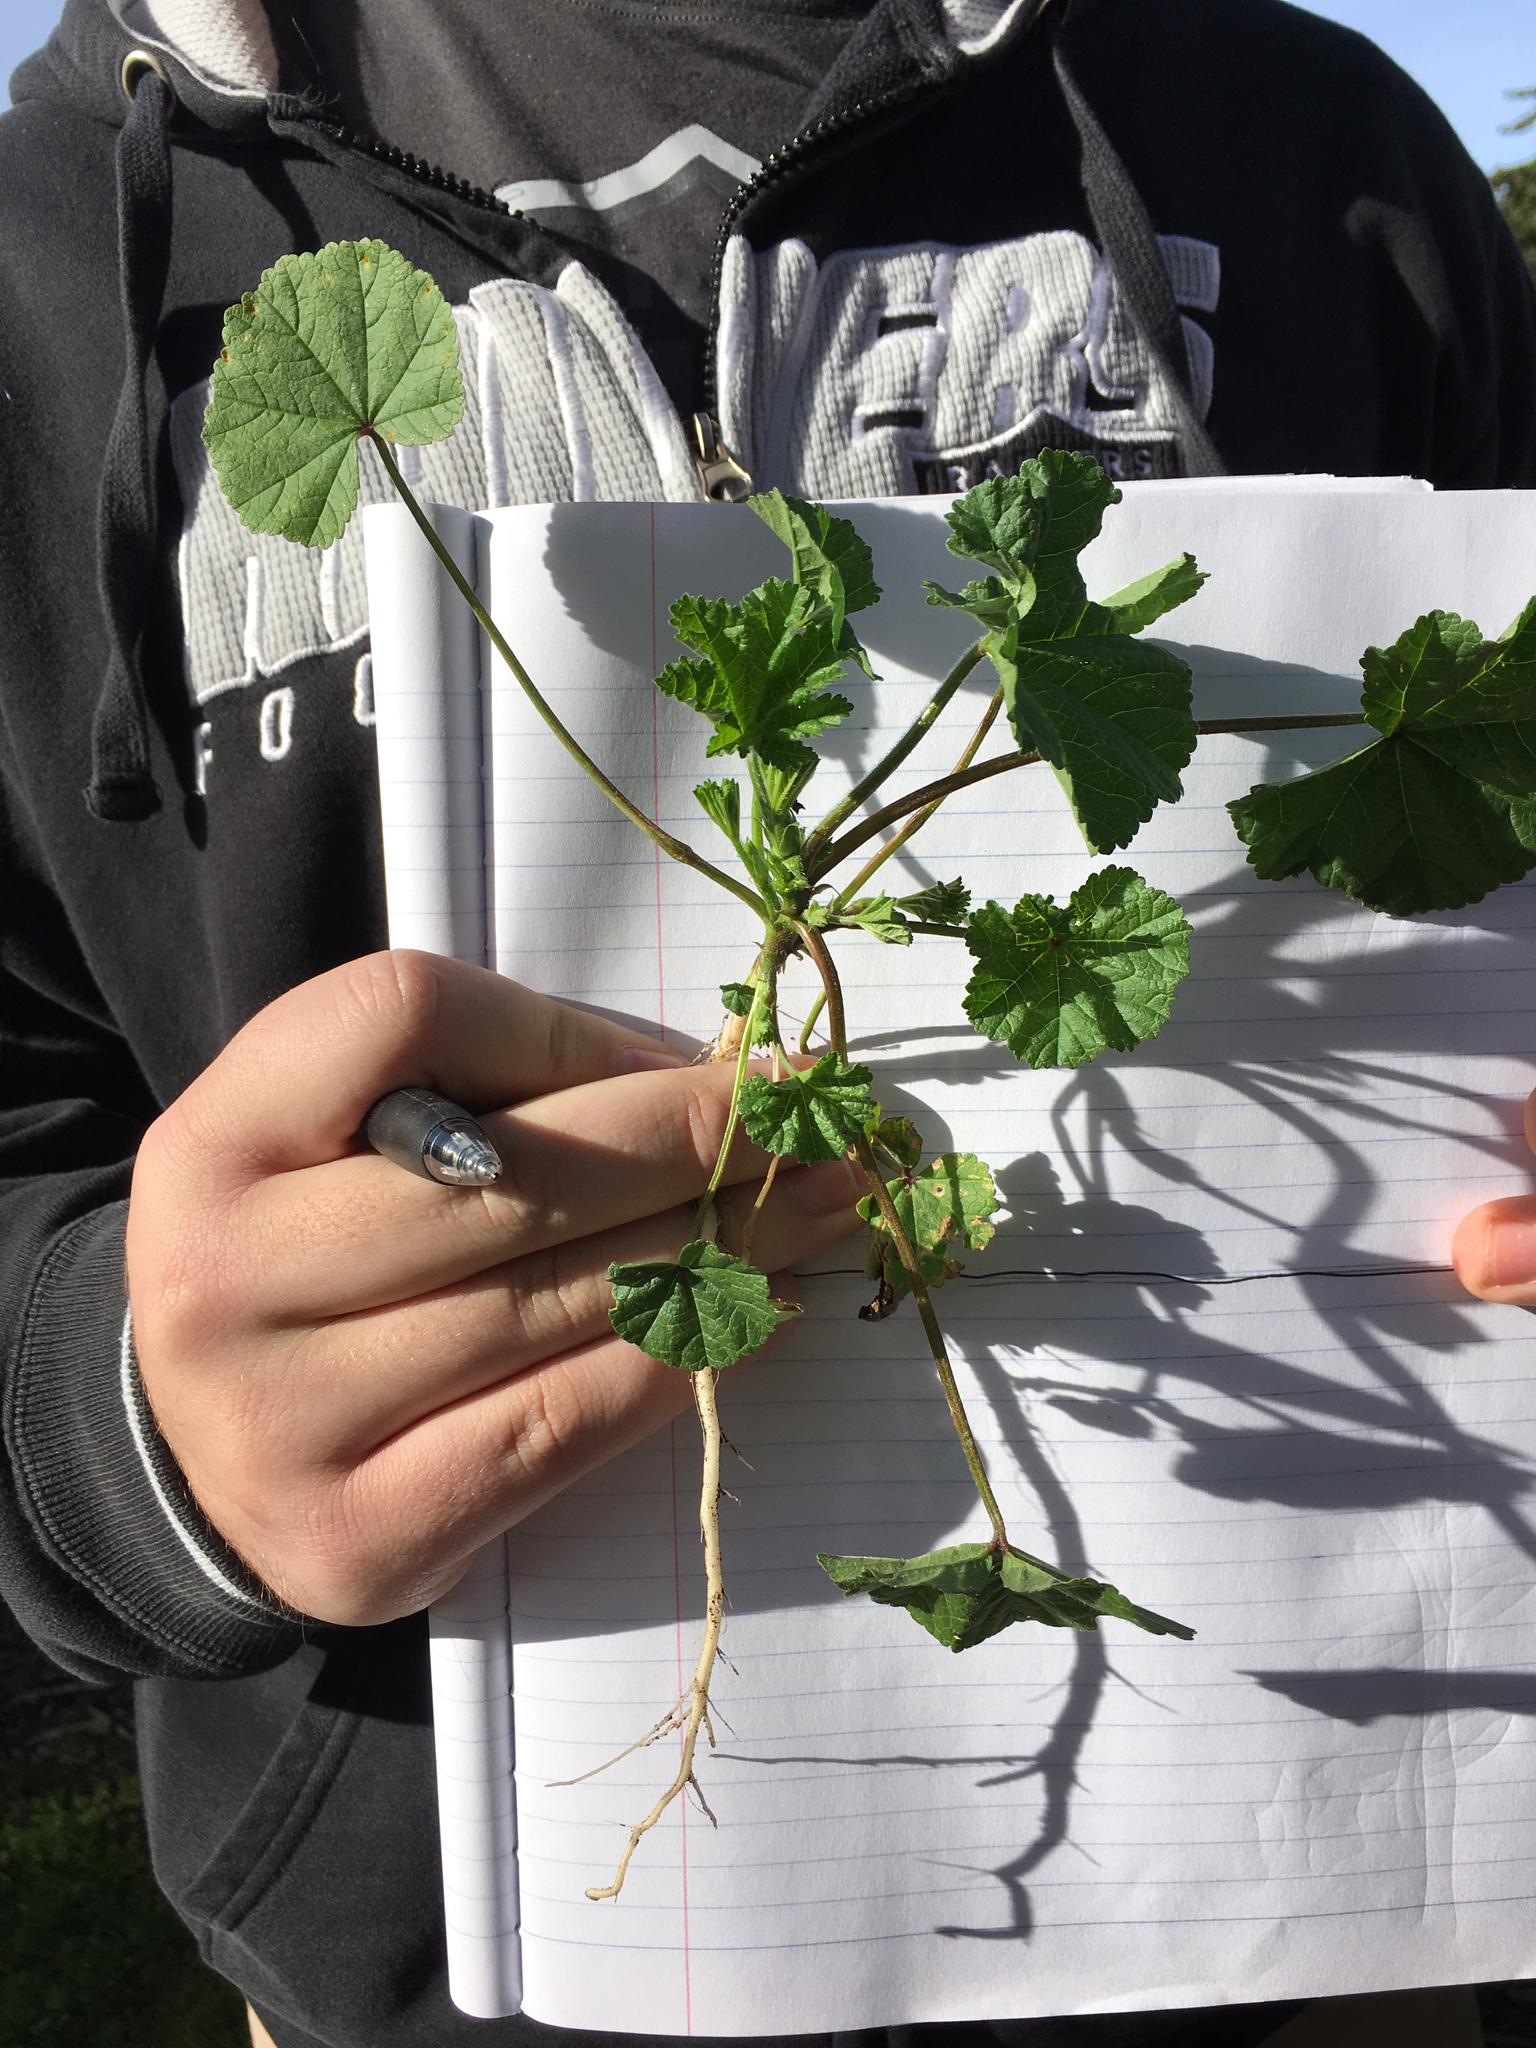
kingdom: Plantae
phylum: Tracheophyta
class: Magnoliopsida
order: Malvales
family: Malvaceae
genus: Malva
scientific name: Malva
